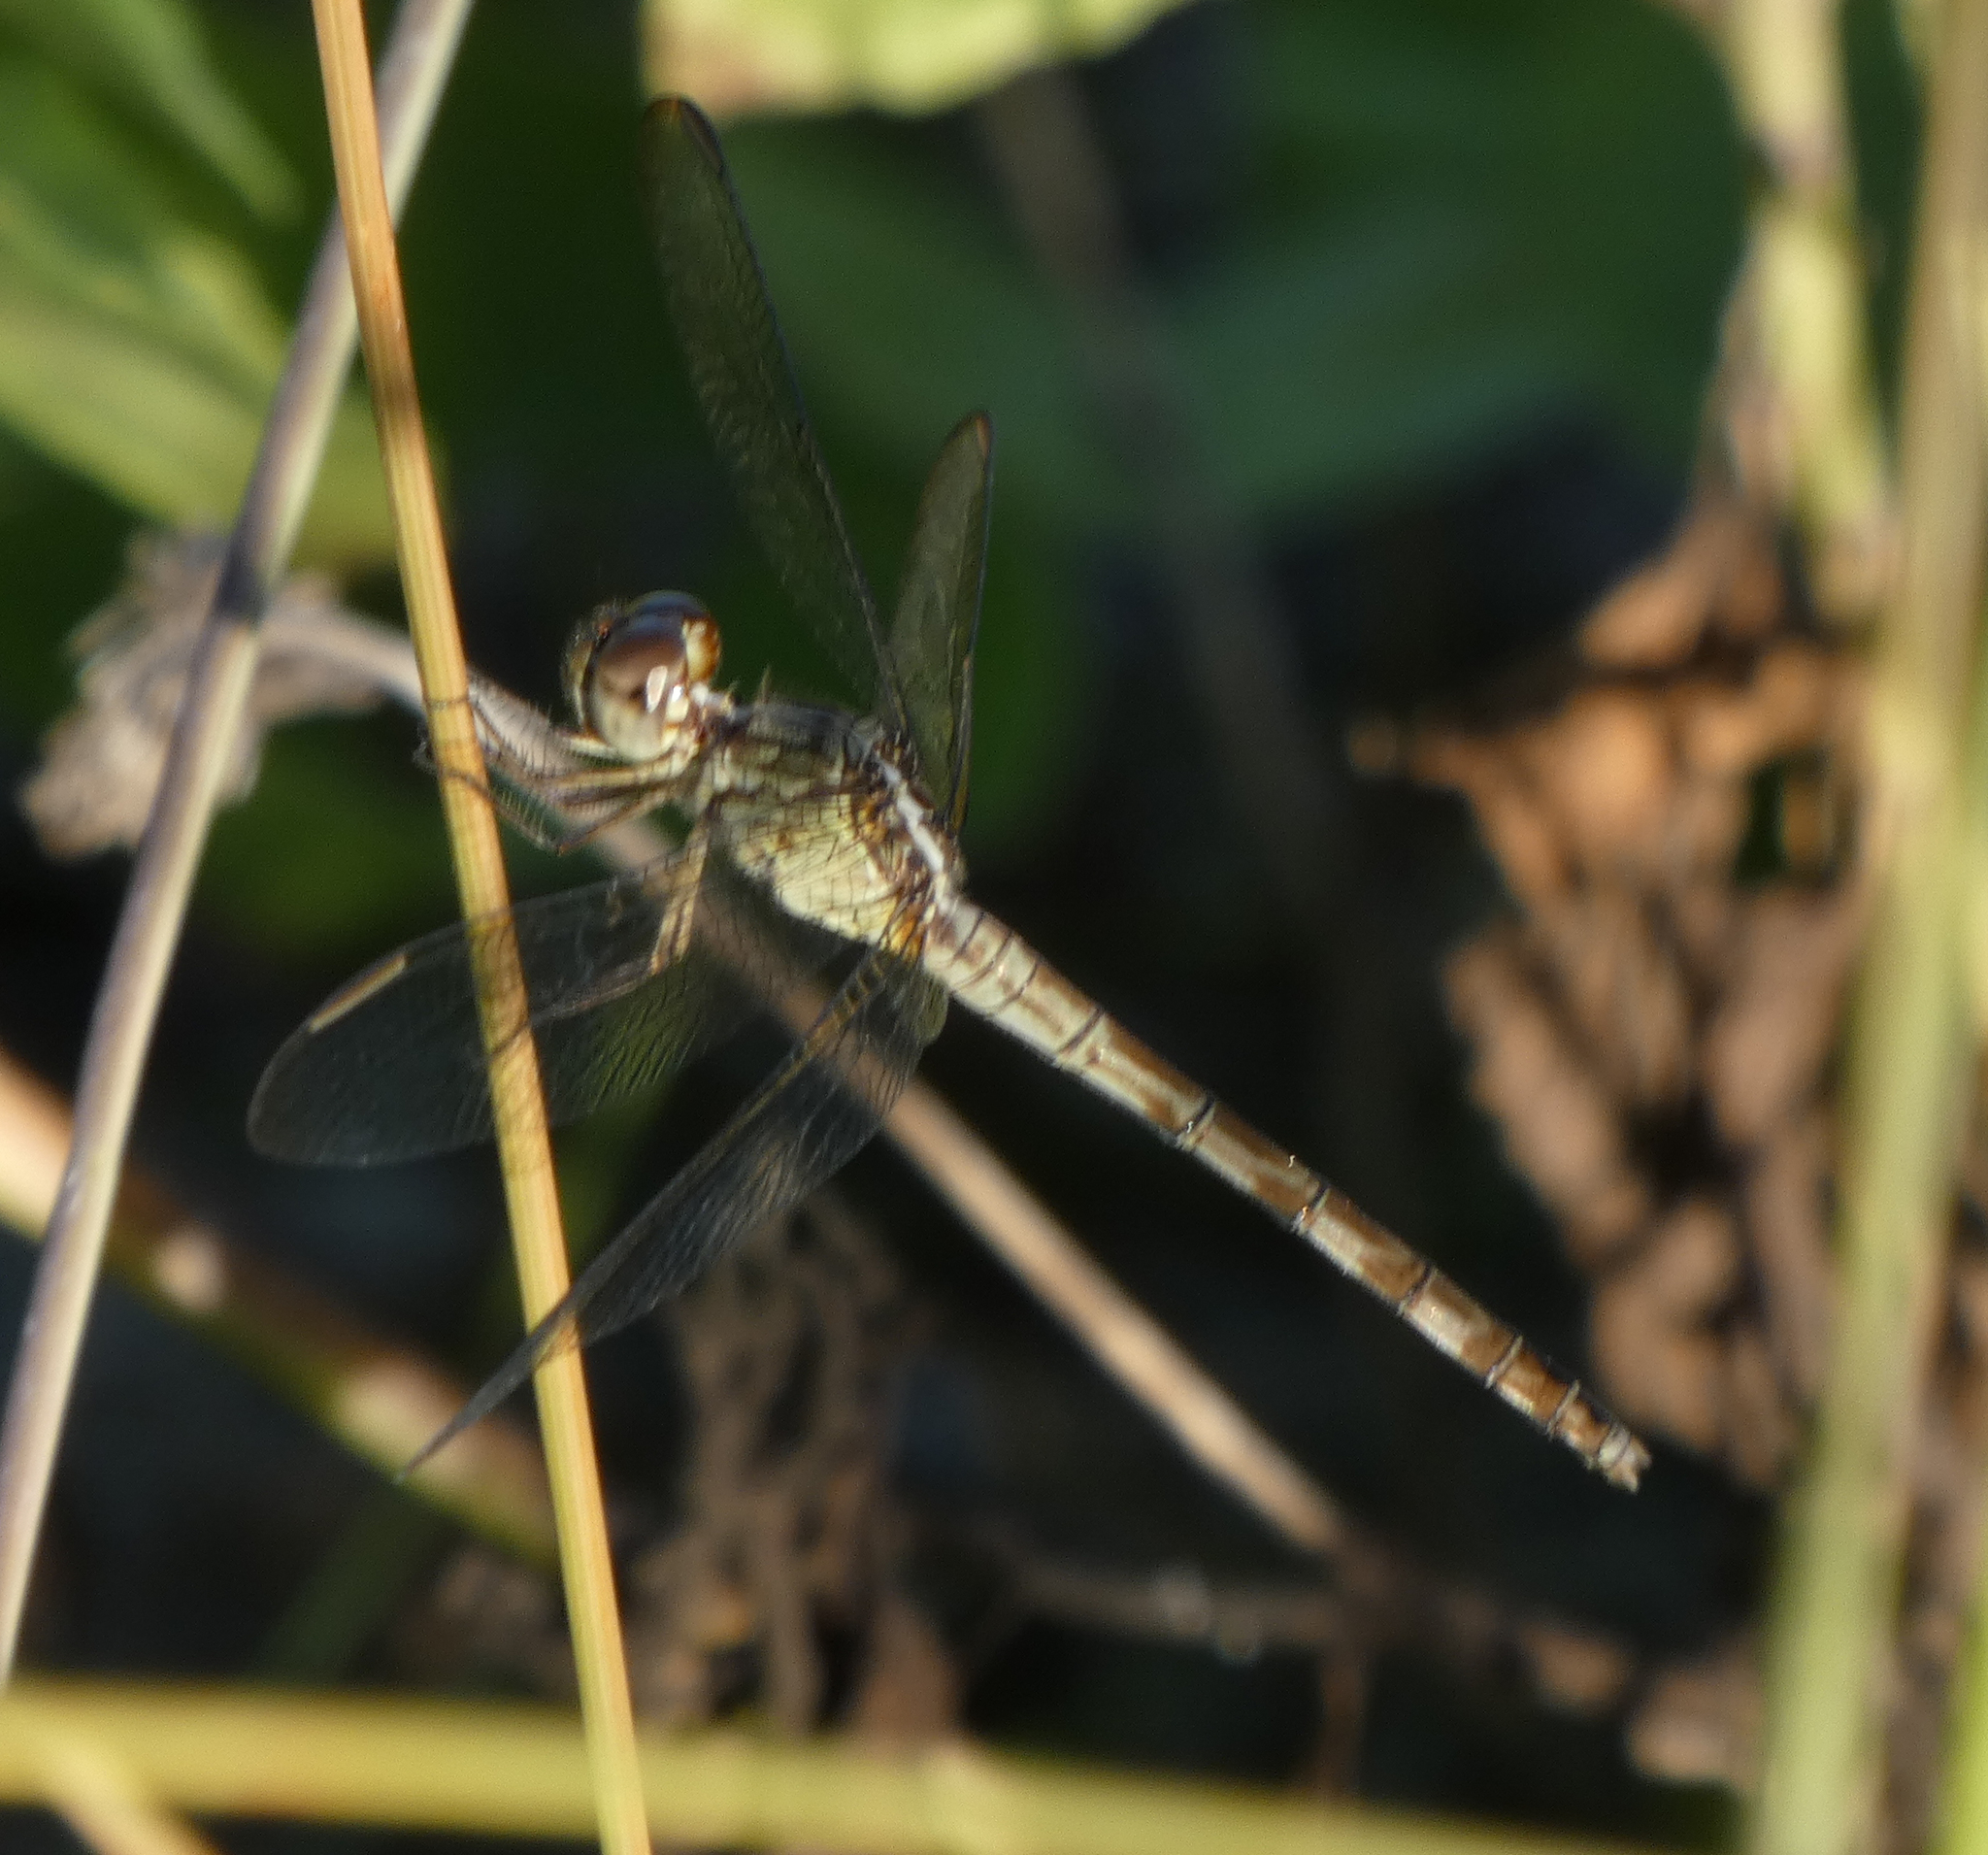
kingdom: Animalia
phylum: Arthropoda
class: Insecta
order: Odonata
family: Libellulidae
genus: Erythrodiplax
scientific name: Erythrodiplax umbrata
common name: Band-winged dragonlet
